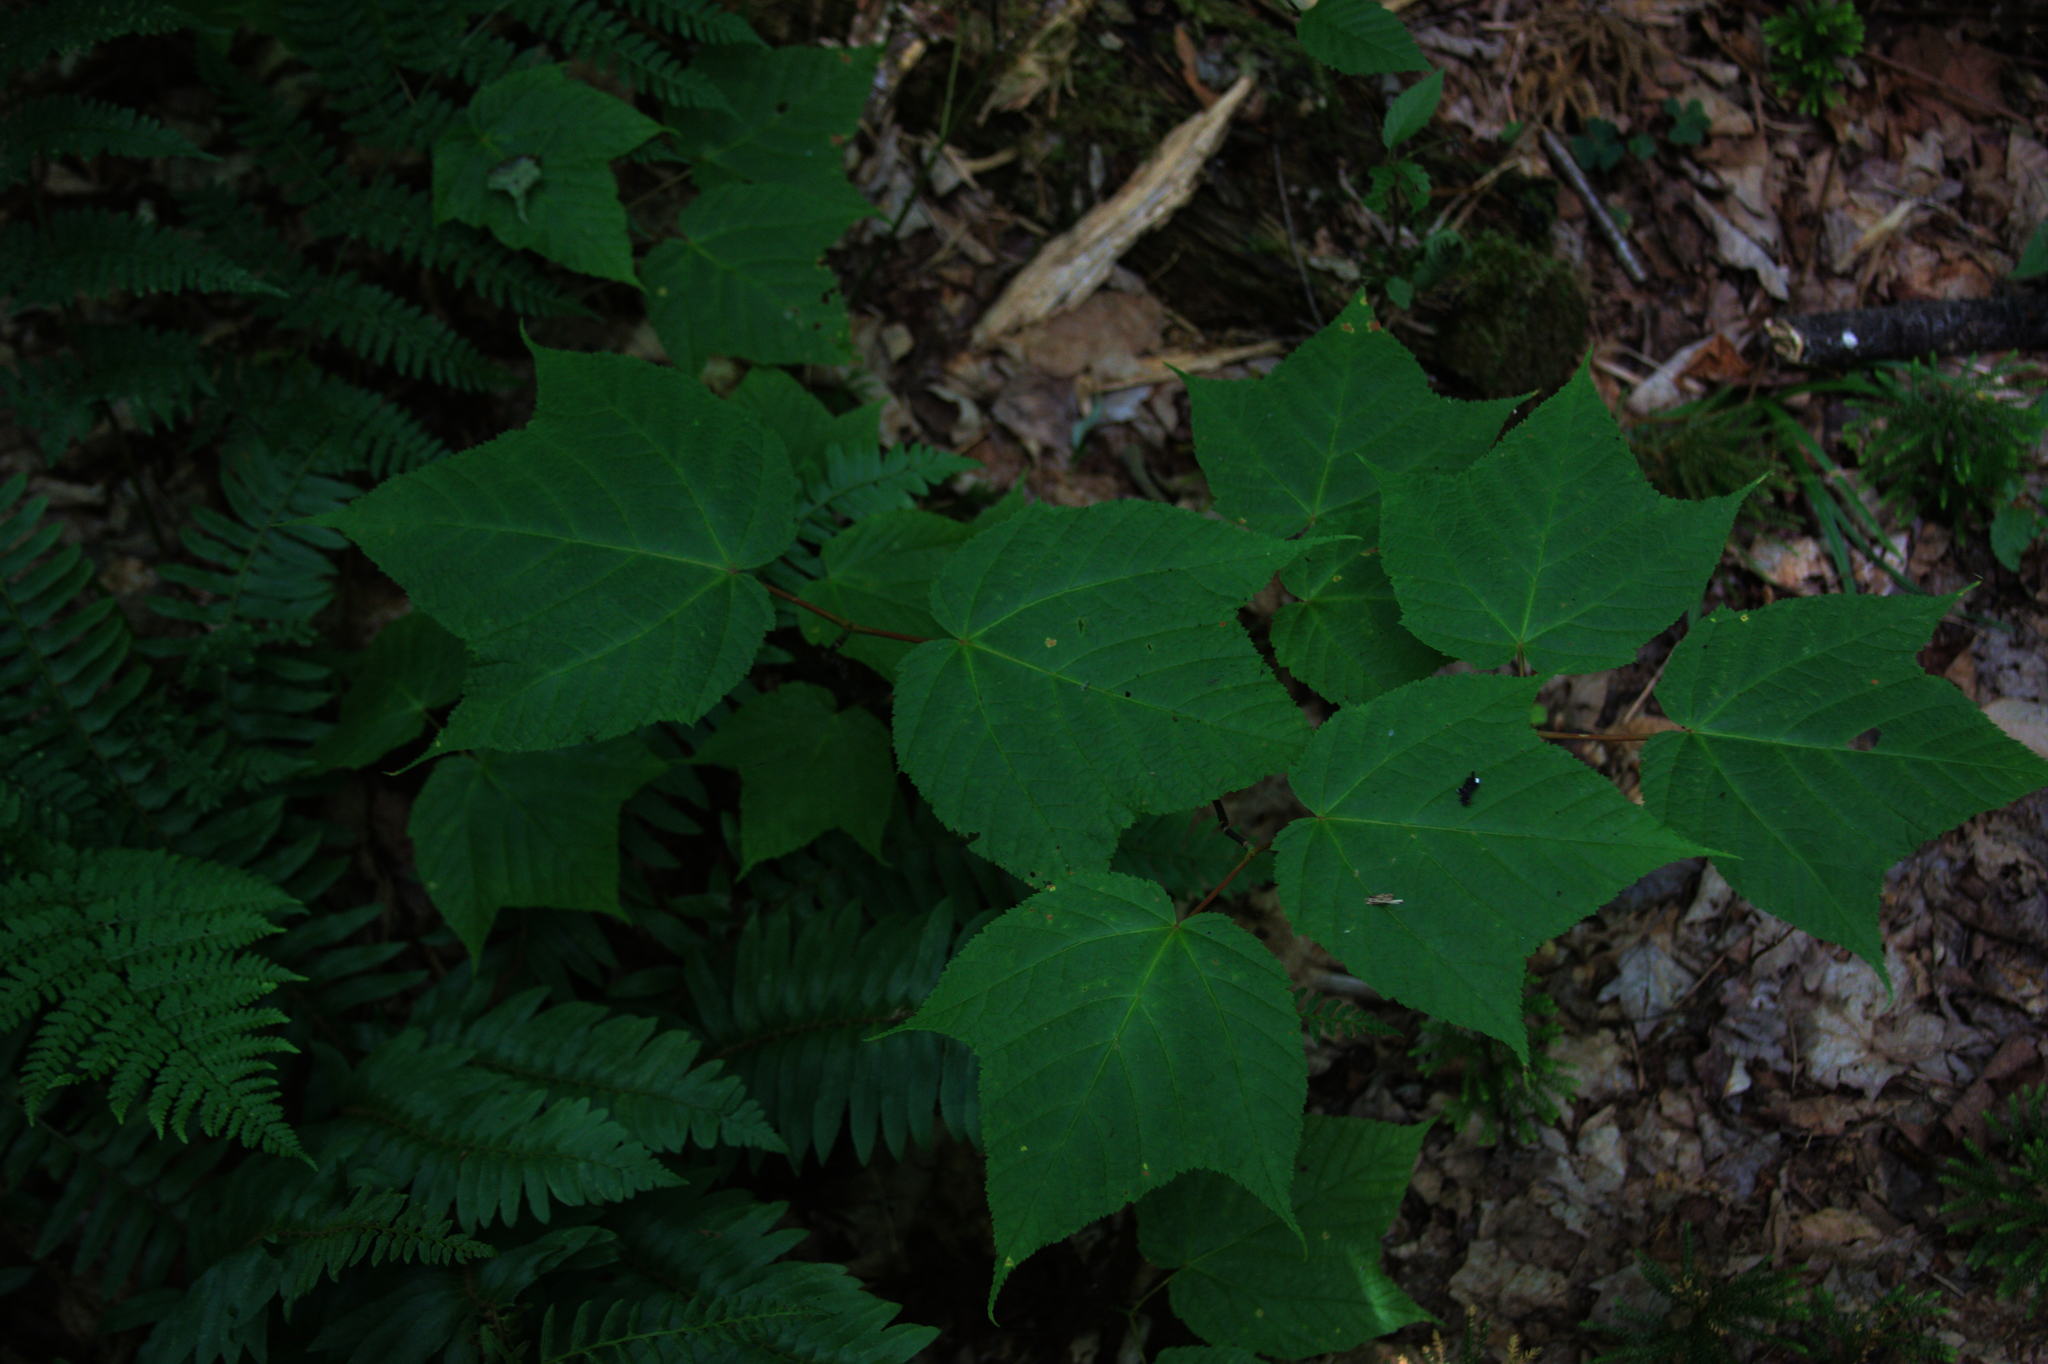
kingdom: Plantae
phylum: Tracheophyta
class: Magnoliopsida
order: Sapindales
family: Sapindaceae
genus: Acer
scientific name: Acer pensylvanicum
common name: Moosewood
